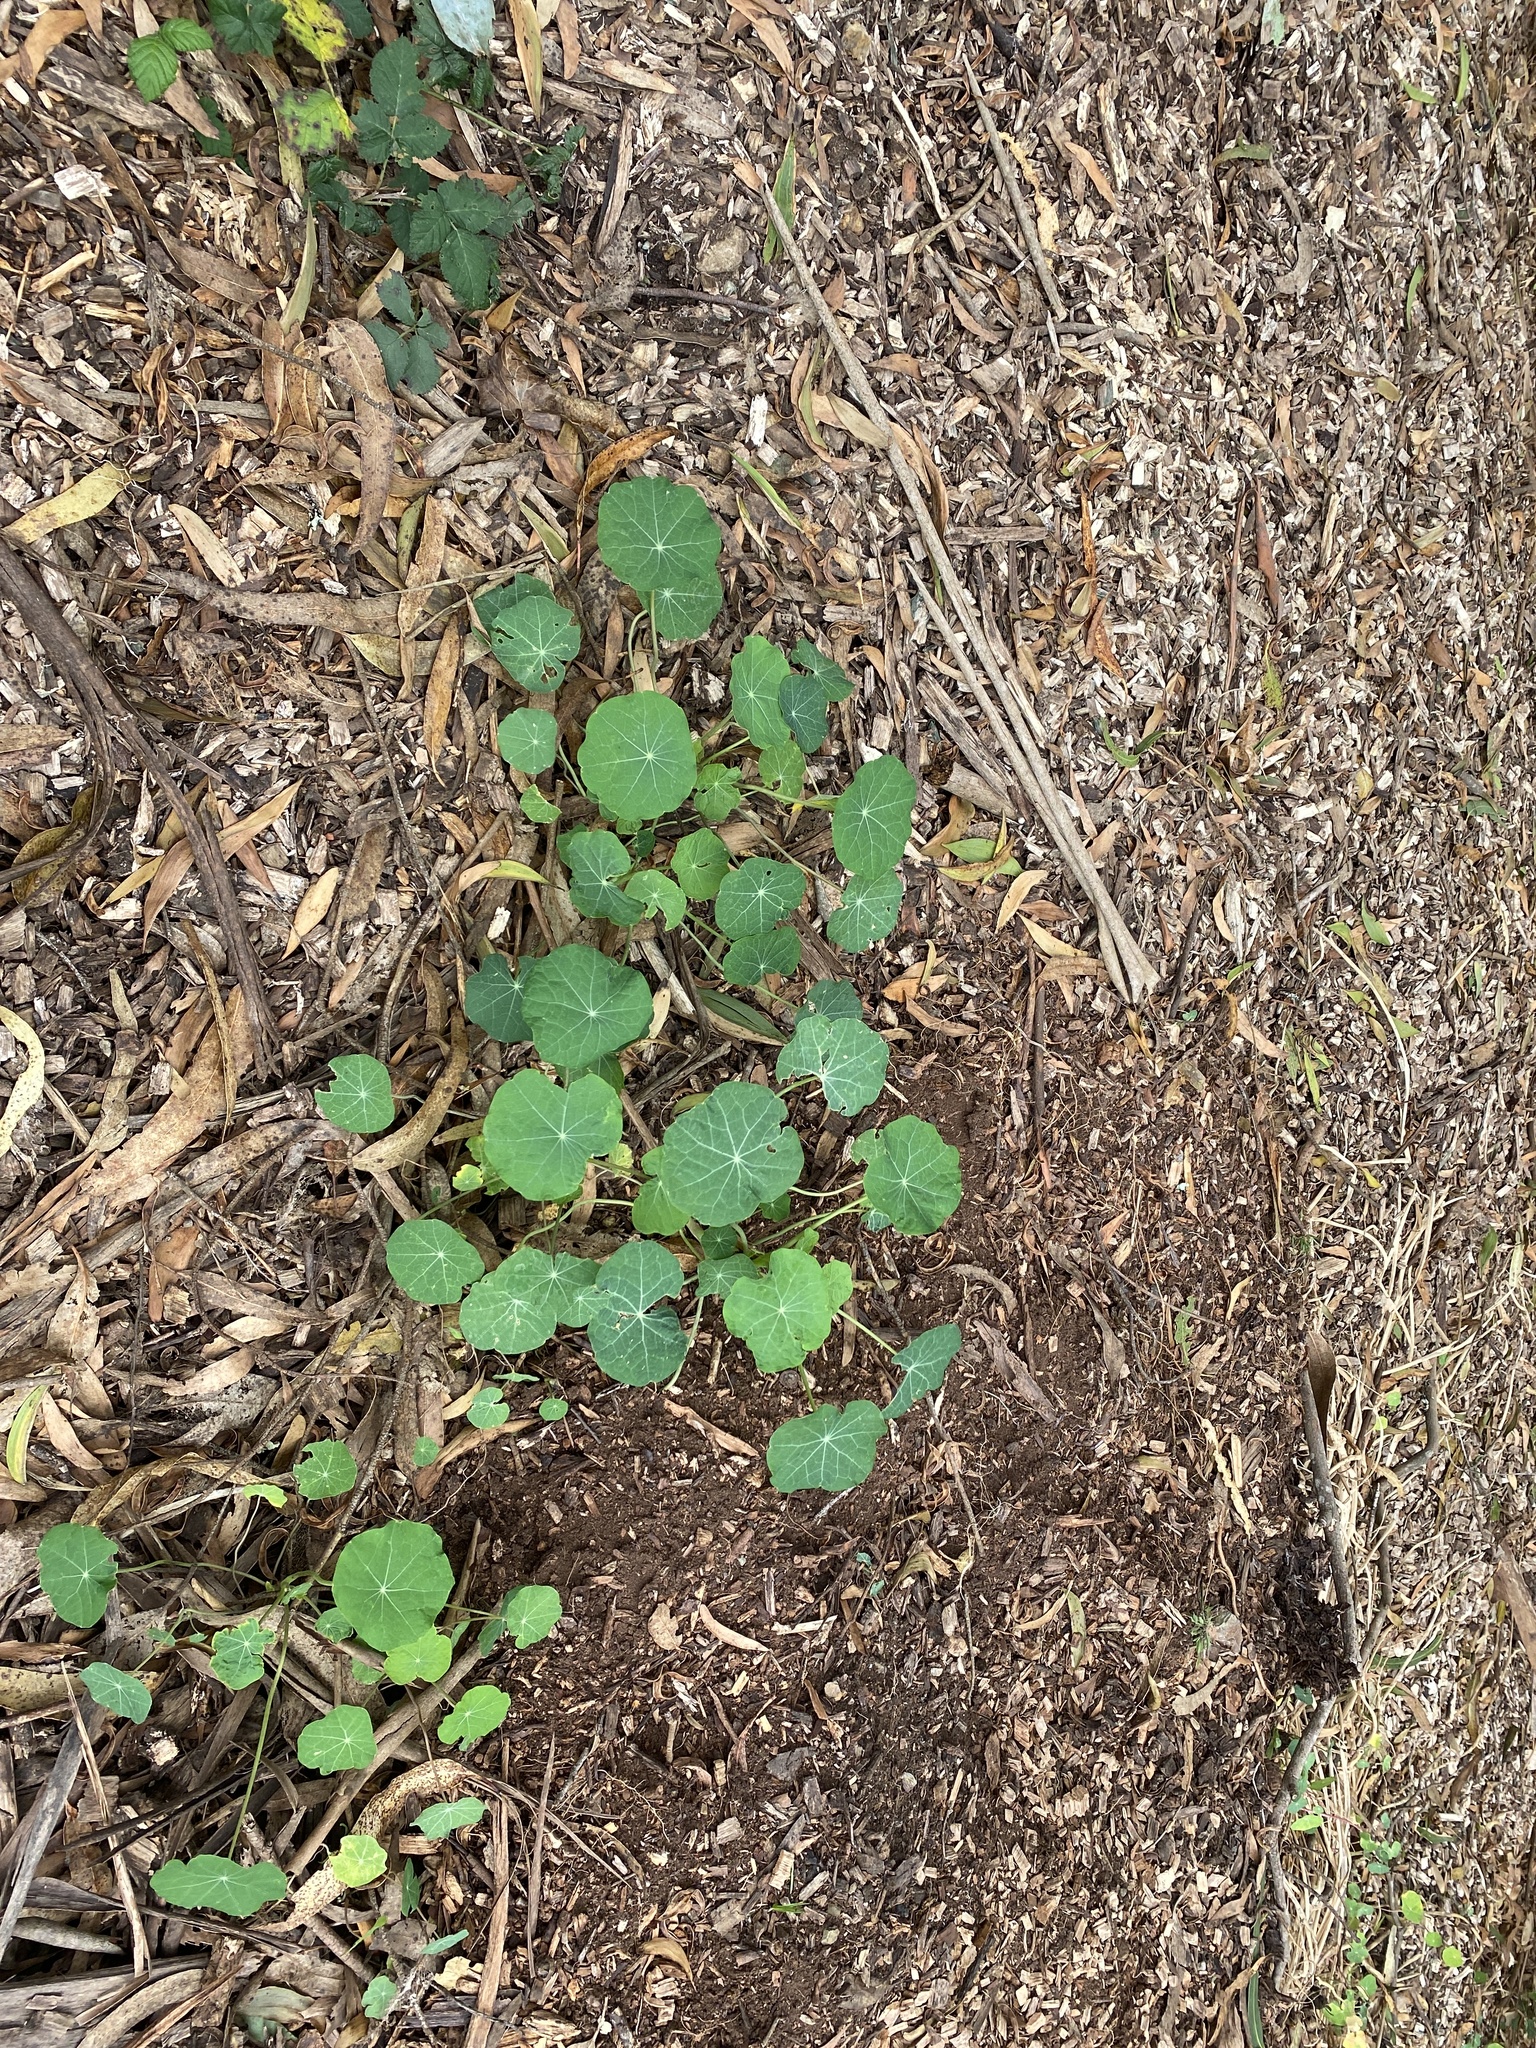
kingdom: Plantae
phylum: Tracheophyta
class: Magnoliopsida
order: Brassicales
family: Tropaeolaceae
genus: Tropaeolum
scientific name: Tropaeolum majus
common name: Nasturtium
